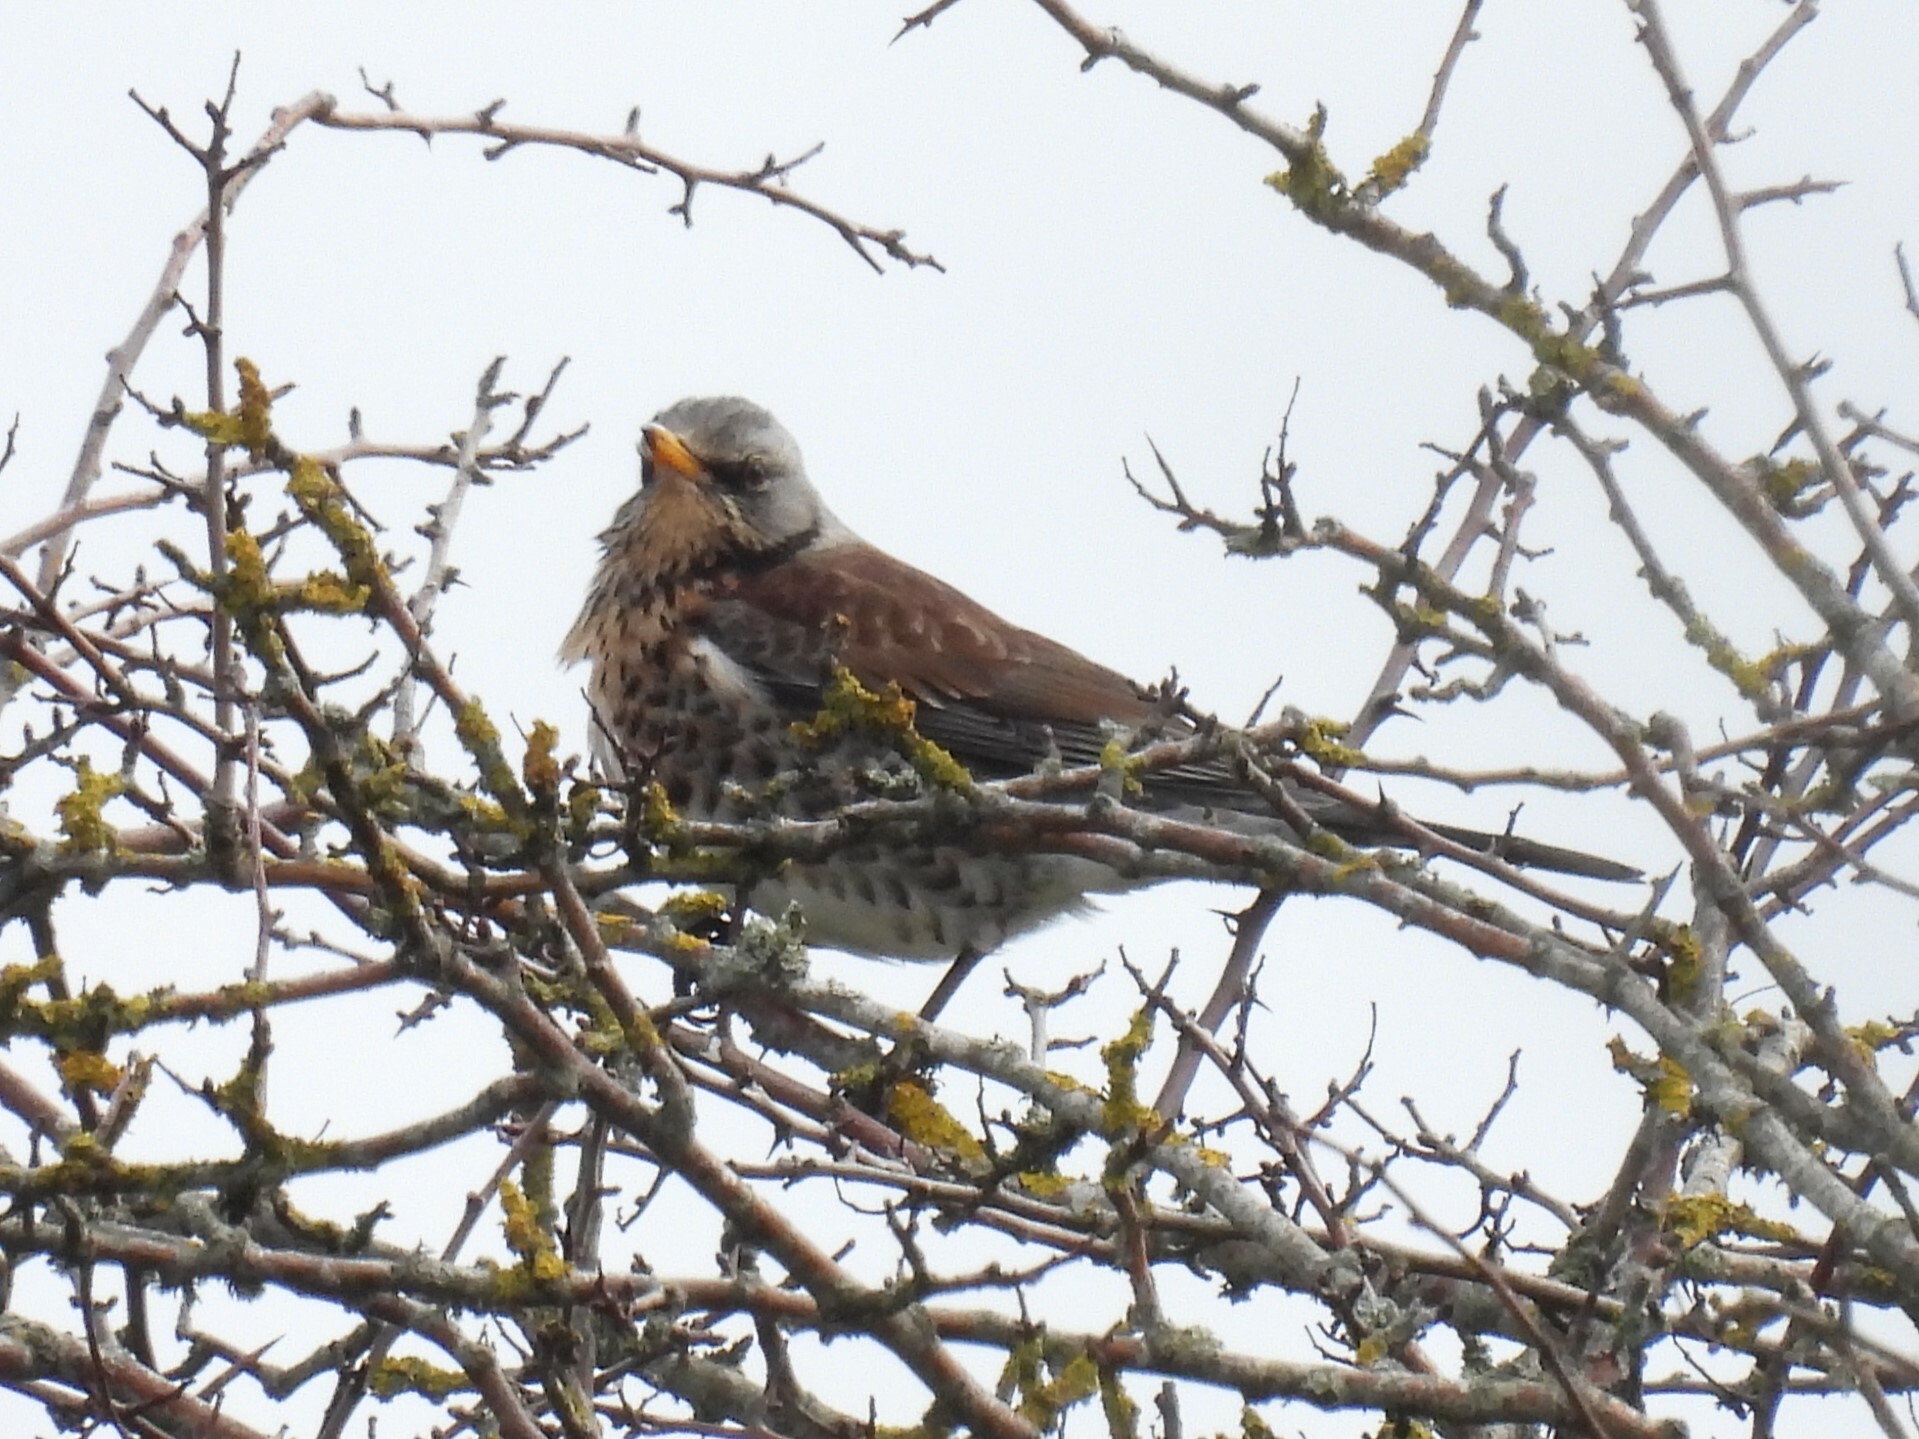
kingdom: Animalia
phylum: Chordata
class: Aves
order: Passeriformes
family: Turdidae
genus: Turdus
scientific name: Turdus pilaris
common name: Fieldfare
